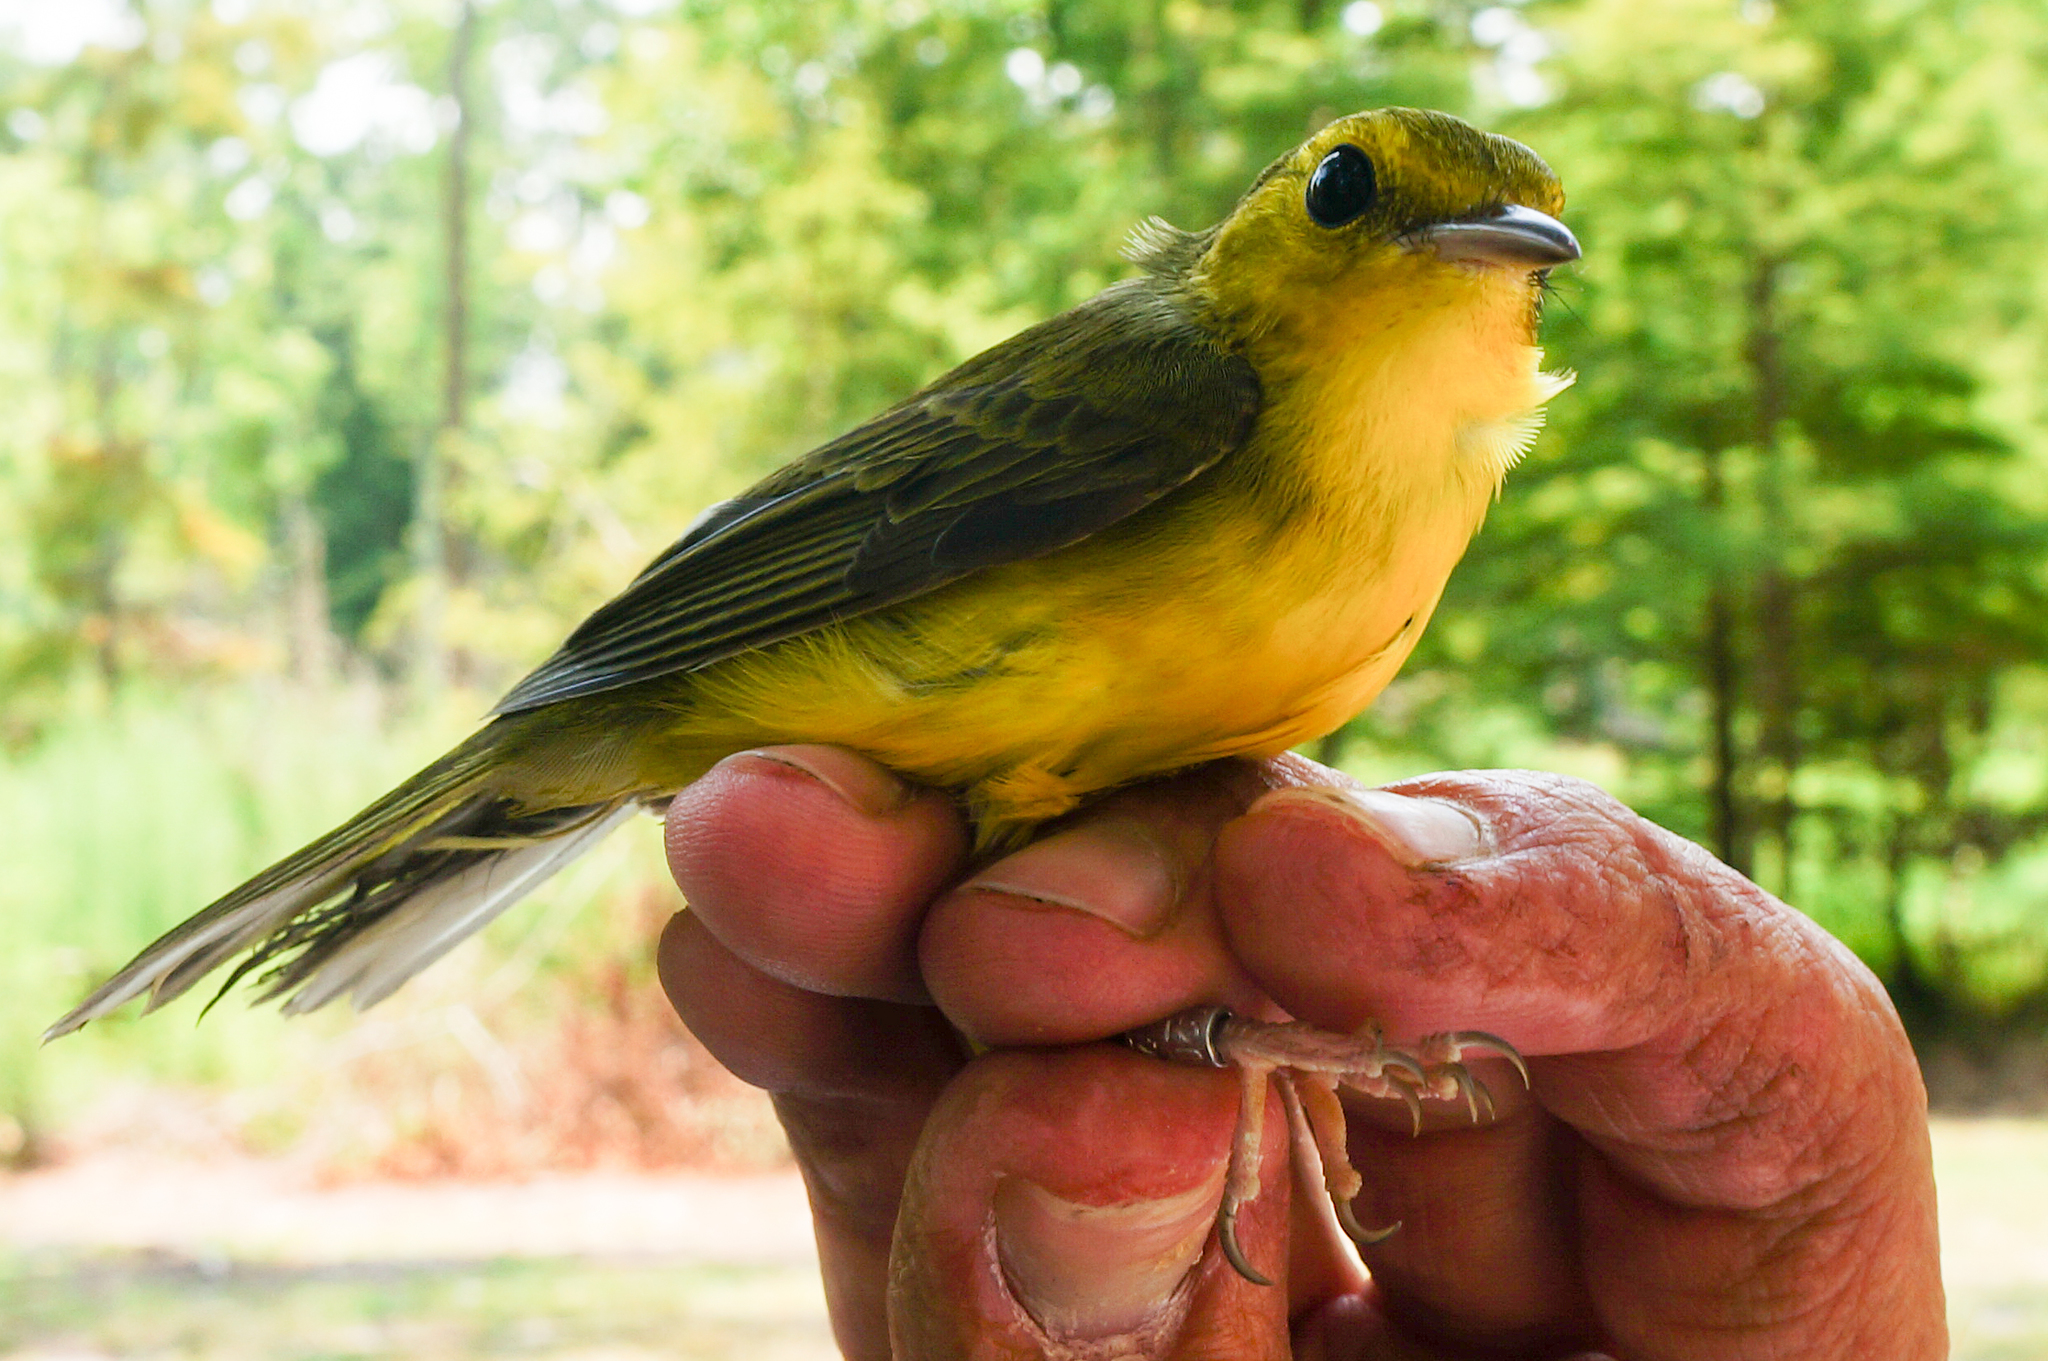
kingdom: Animalia
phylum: Chordata
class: Aves
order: Passeriformes
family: Parulidae
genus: Setophaga
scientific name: Setophaga citrina
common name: Hooded warbler
